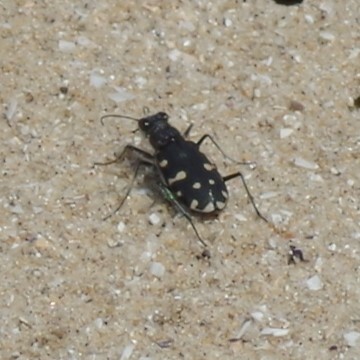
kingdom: Animalia
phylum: Arthropoda
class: Insecta
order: Coleoptera
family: Carabidae
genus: Cicindela
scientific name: Cicindela littoralis
